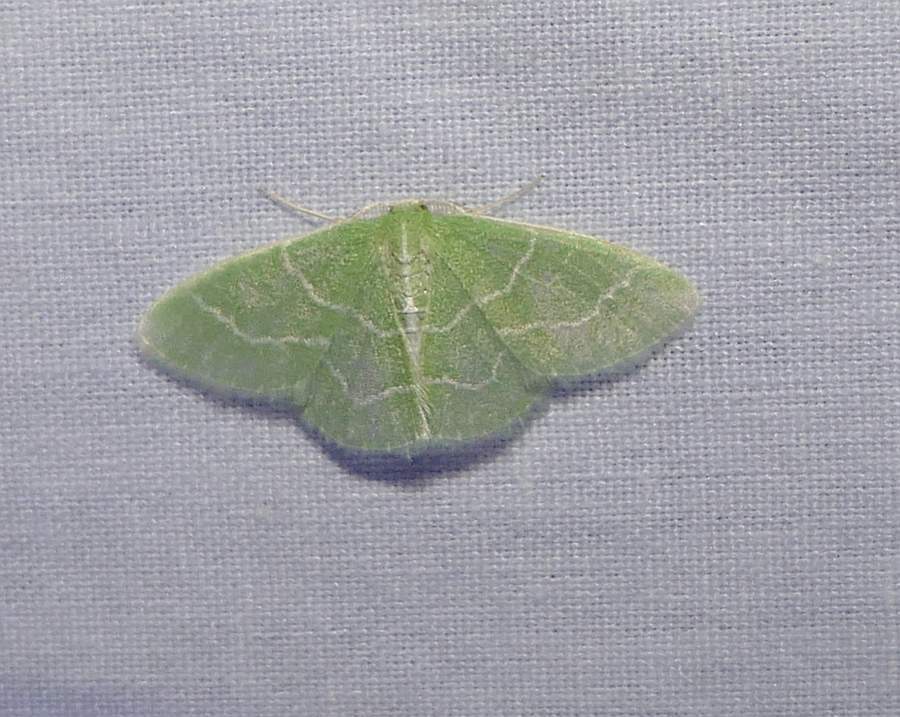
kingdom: Animalia
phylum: Arthropoda
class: Insecta
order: Lepidoptera
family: Geometridae
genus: Synchlora
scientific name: Synchlora aerata
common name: Wavy-lined emerald
